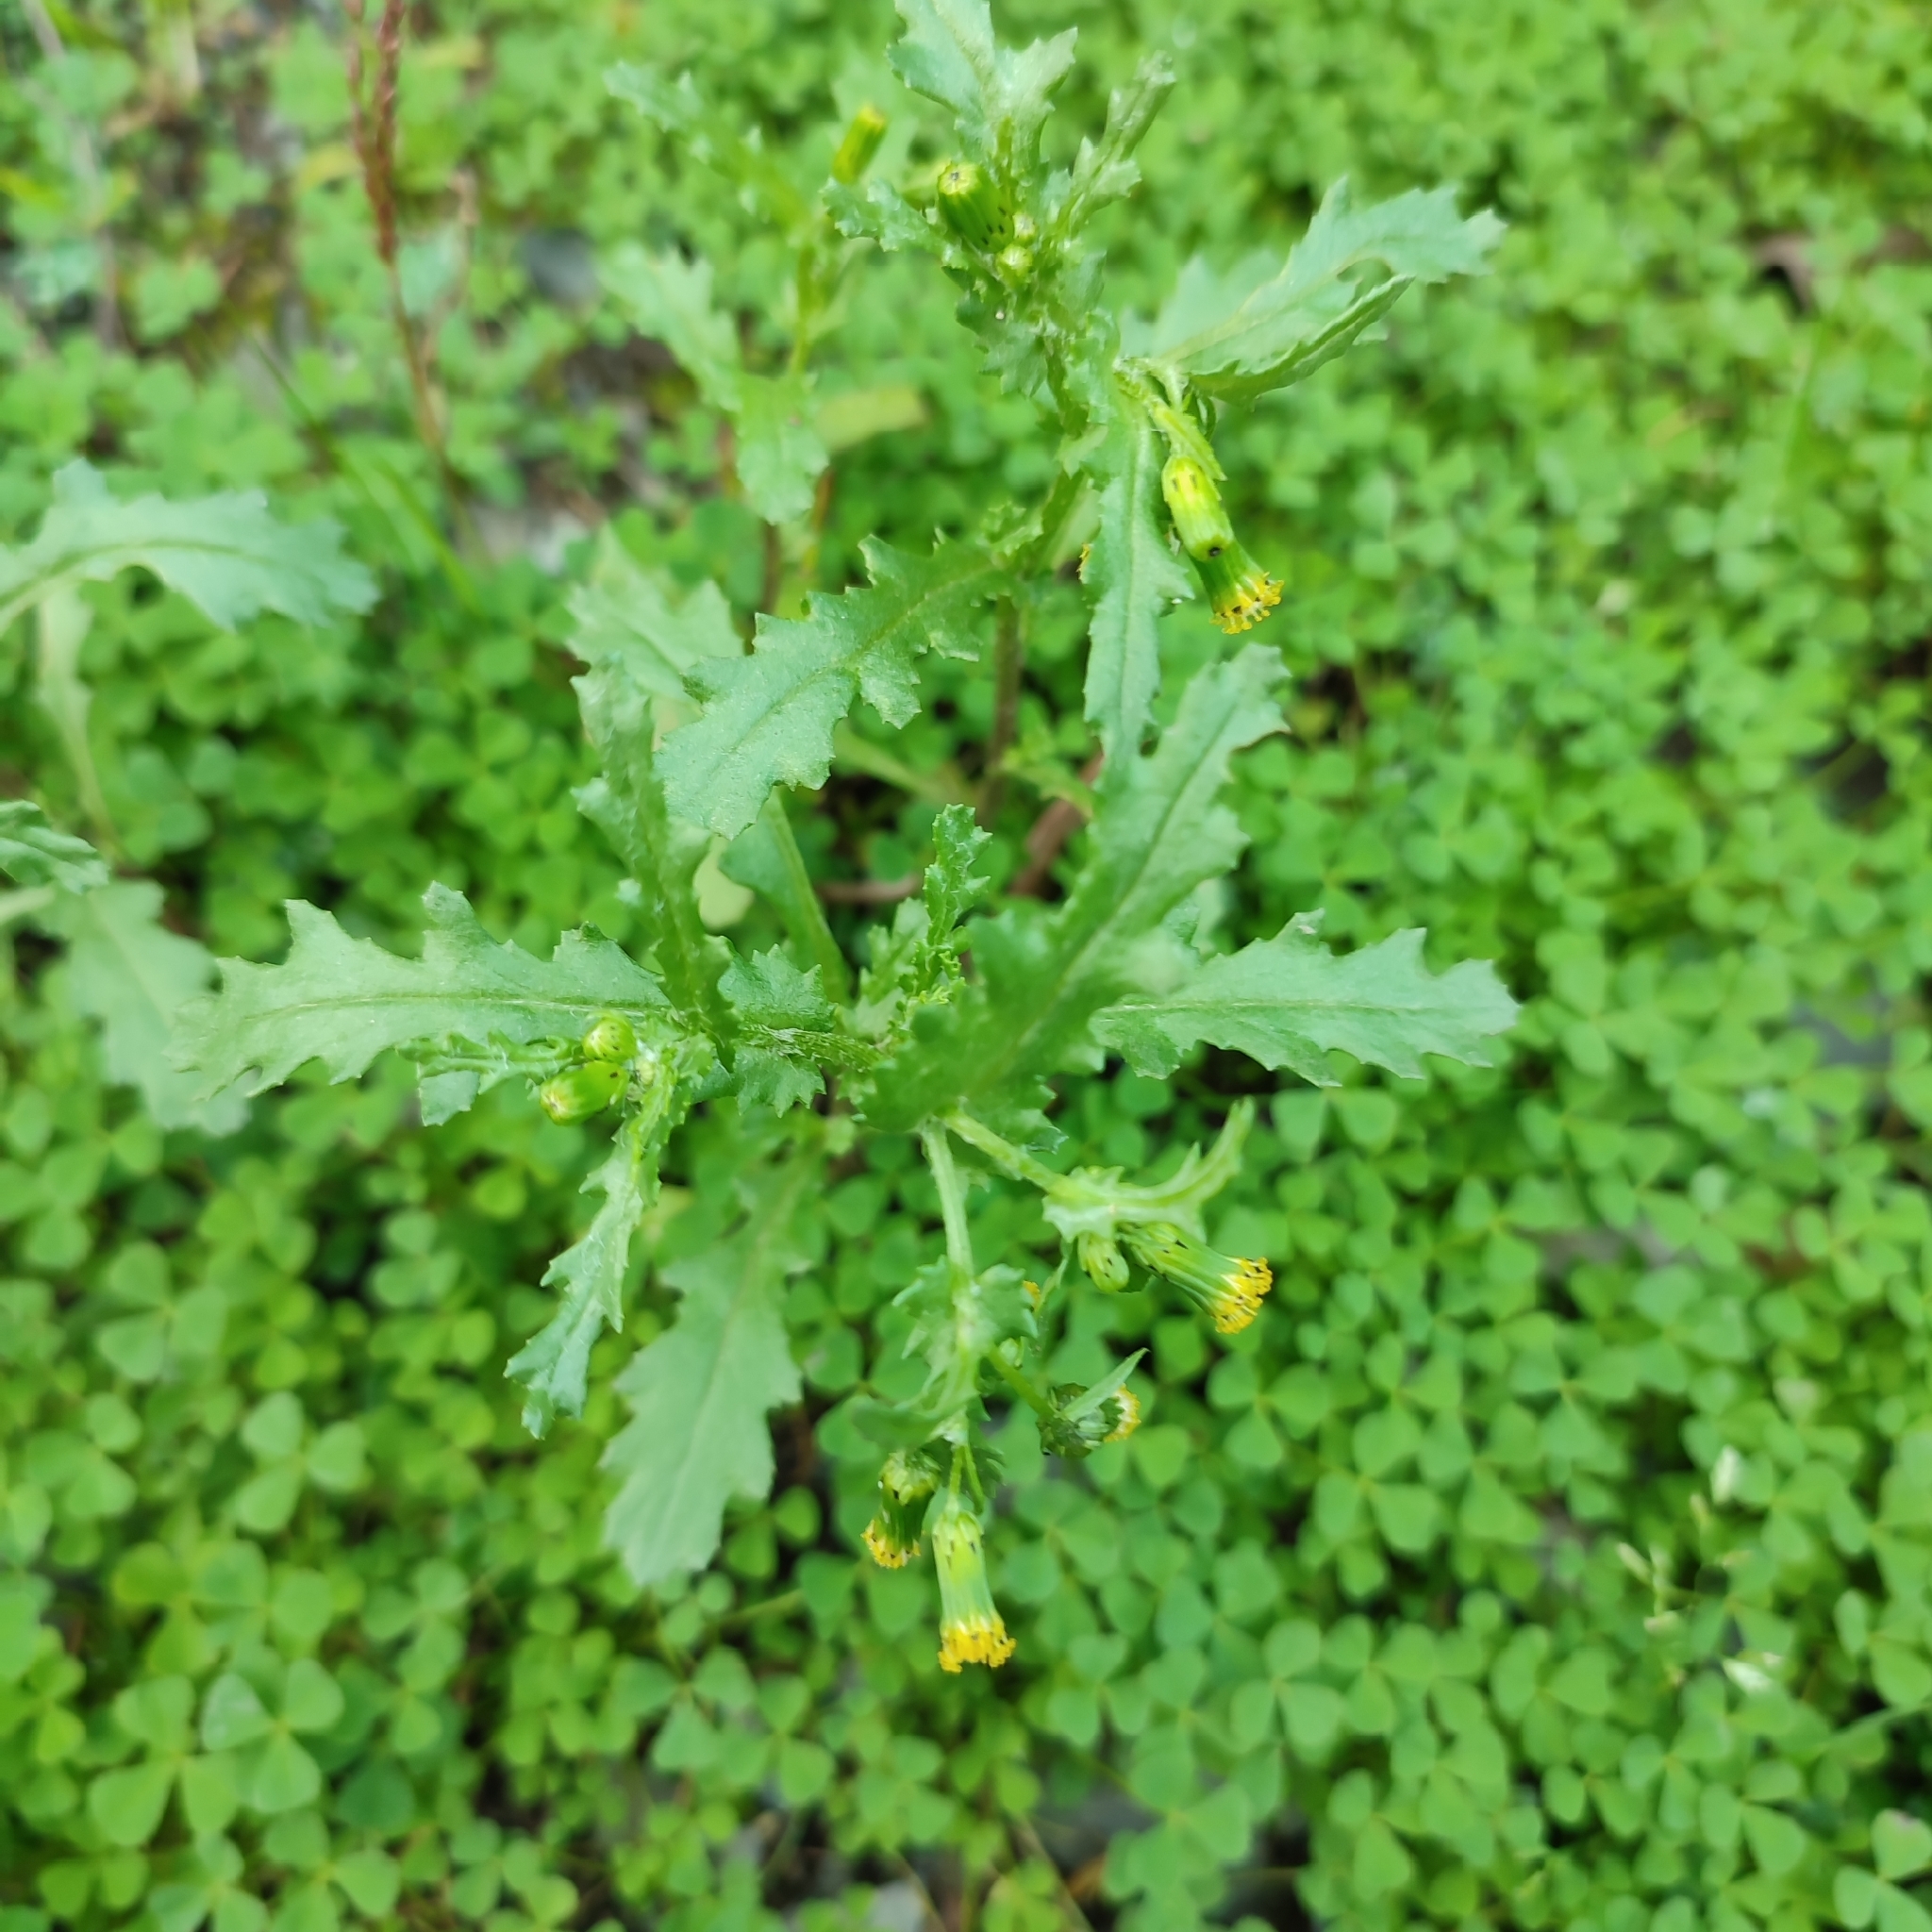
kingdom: Plantae
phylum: Tracheophyta
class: Magnoliopsida
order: Asterales
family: Asteraceae
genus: Senecio
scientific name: Senecio vulgaris
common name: Old-man-in-the-spring
